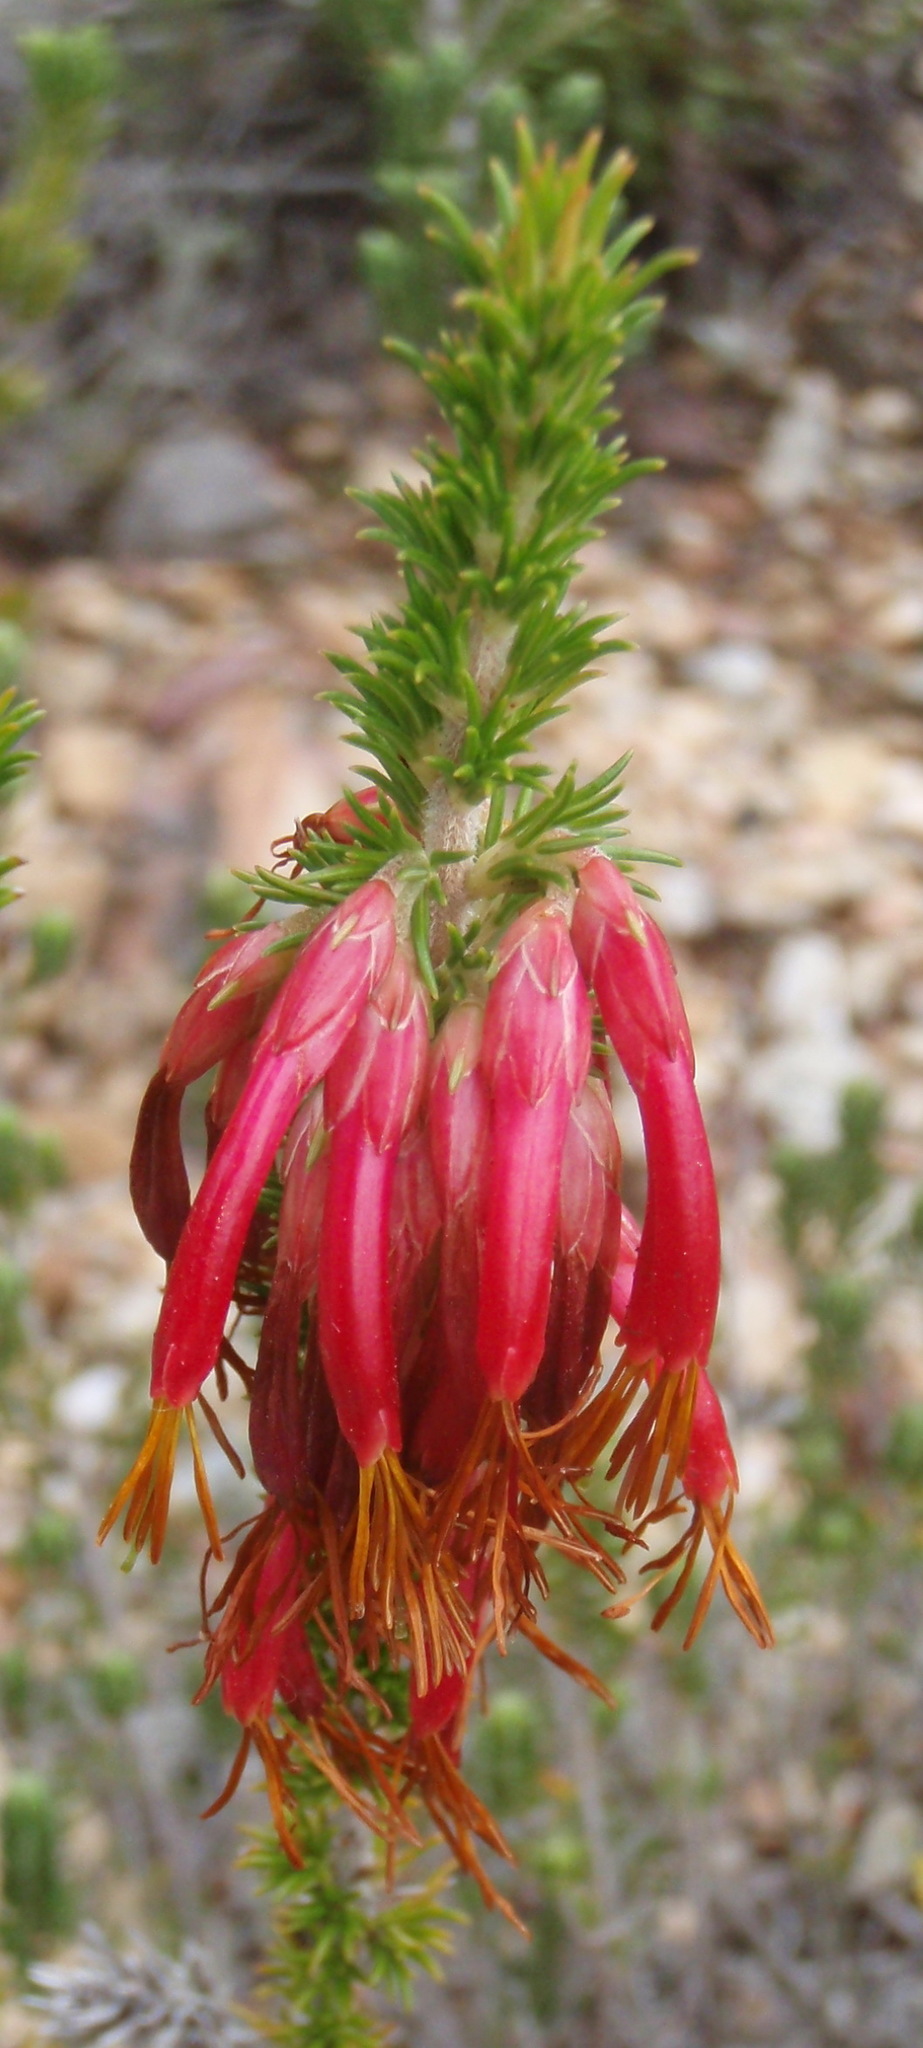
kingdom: Plantae
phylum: Tracheophyta
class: Magnoliopsida
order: Ericales
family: Ericaceae
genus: Erica
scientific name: Erica coccinea
